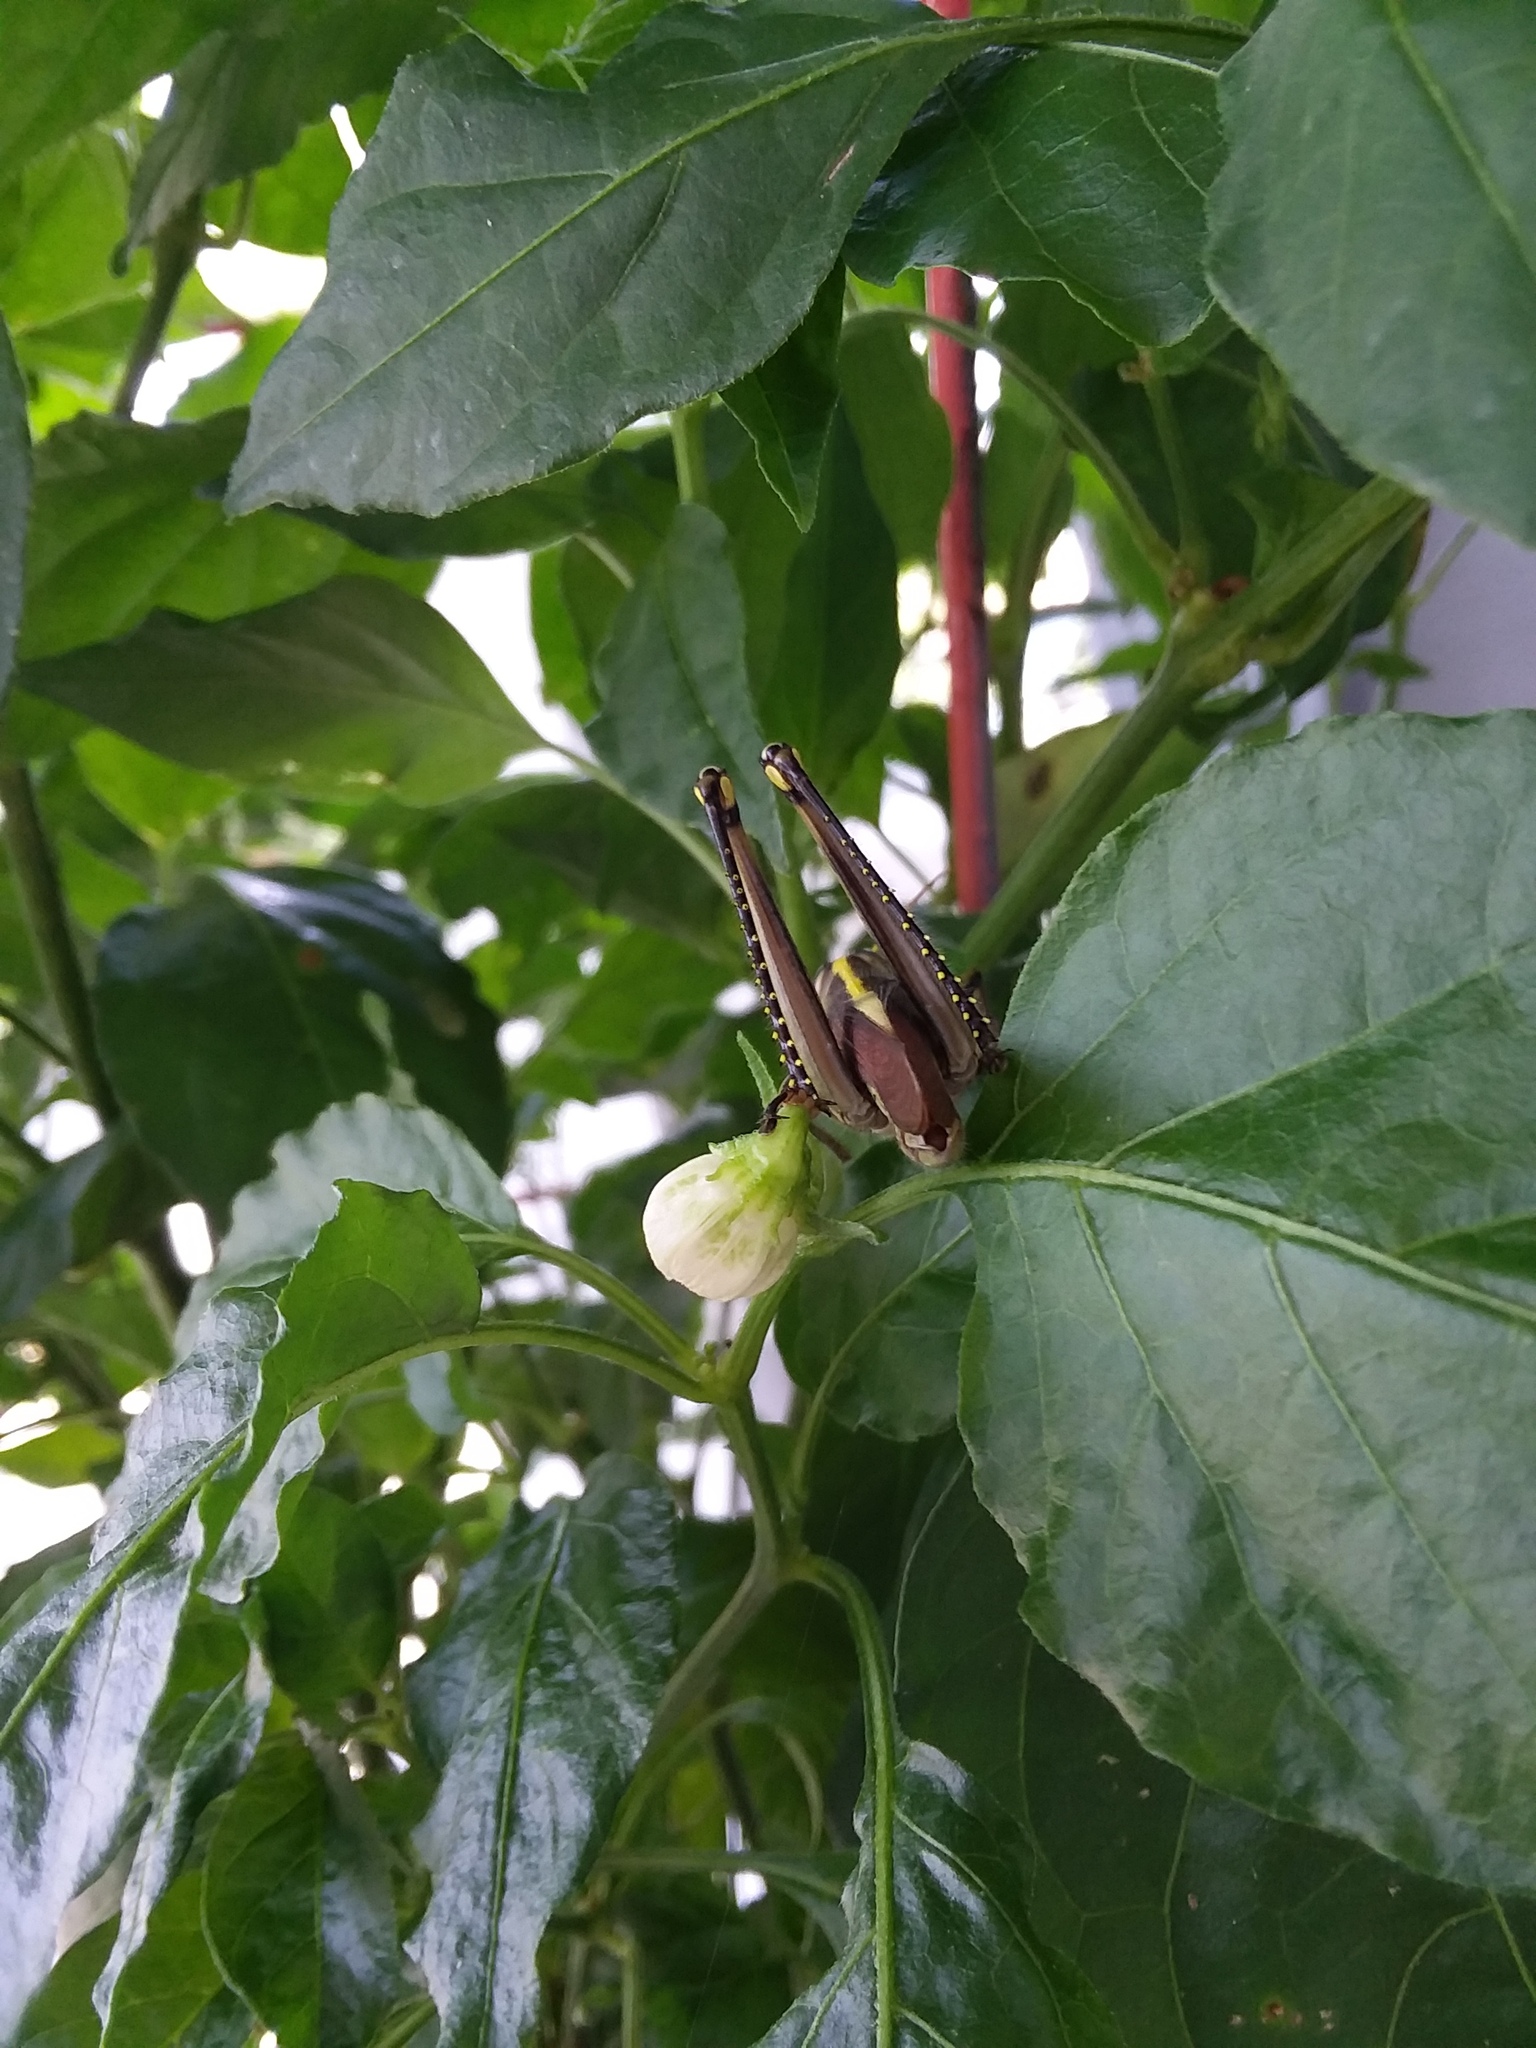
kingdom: Animalia
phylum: Arthropoda
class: Insecta
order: Orthoptera
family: Acrididae
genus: Schistocerca
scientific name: Schistocerca obscura
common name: Obscure bird grasshopper
